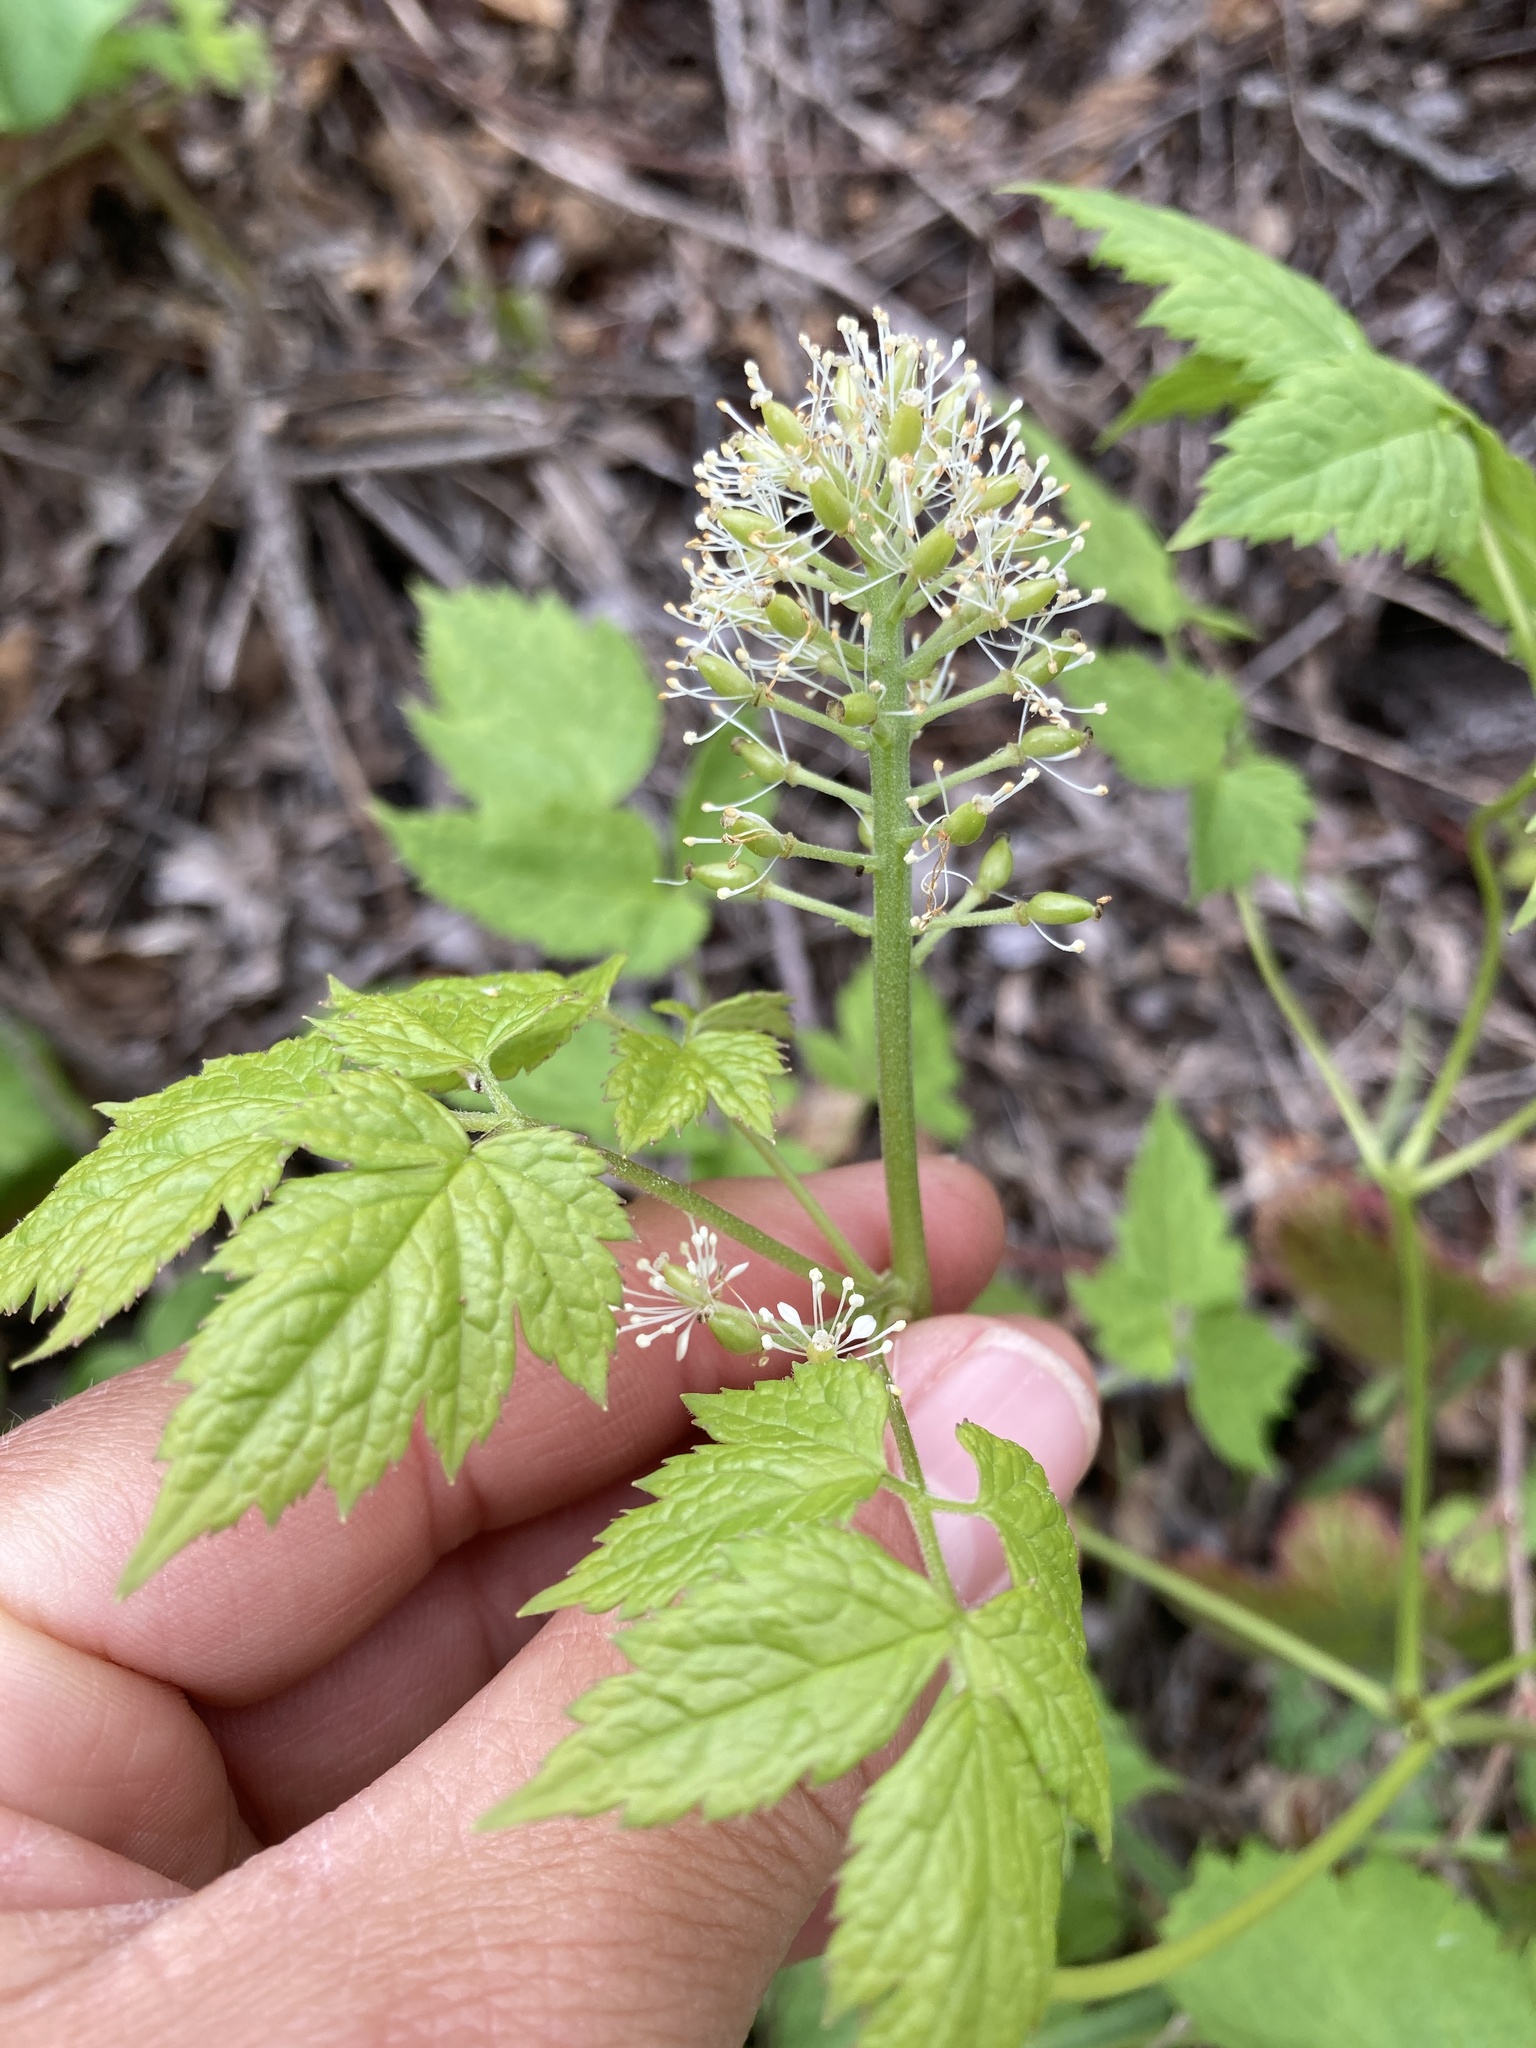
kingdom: Plantae
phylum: Tracheophyta
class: Magnoliopsida
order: Ranunculales
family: Ranunculaceae
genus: Actaea
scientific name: Actaea rubra
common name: Red baneberry
